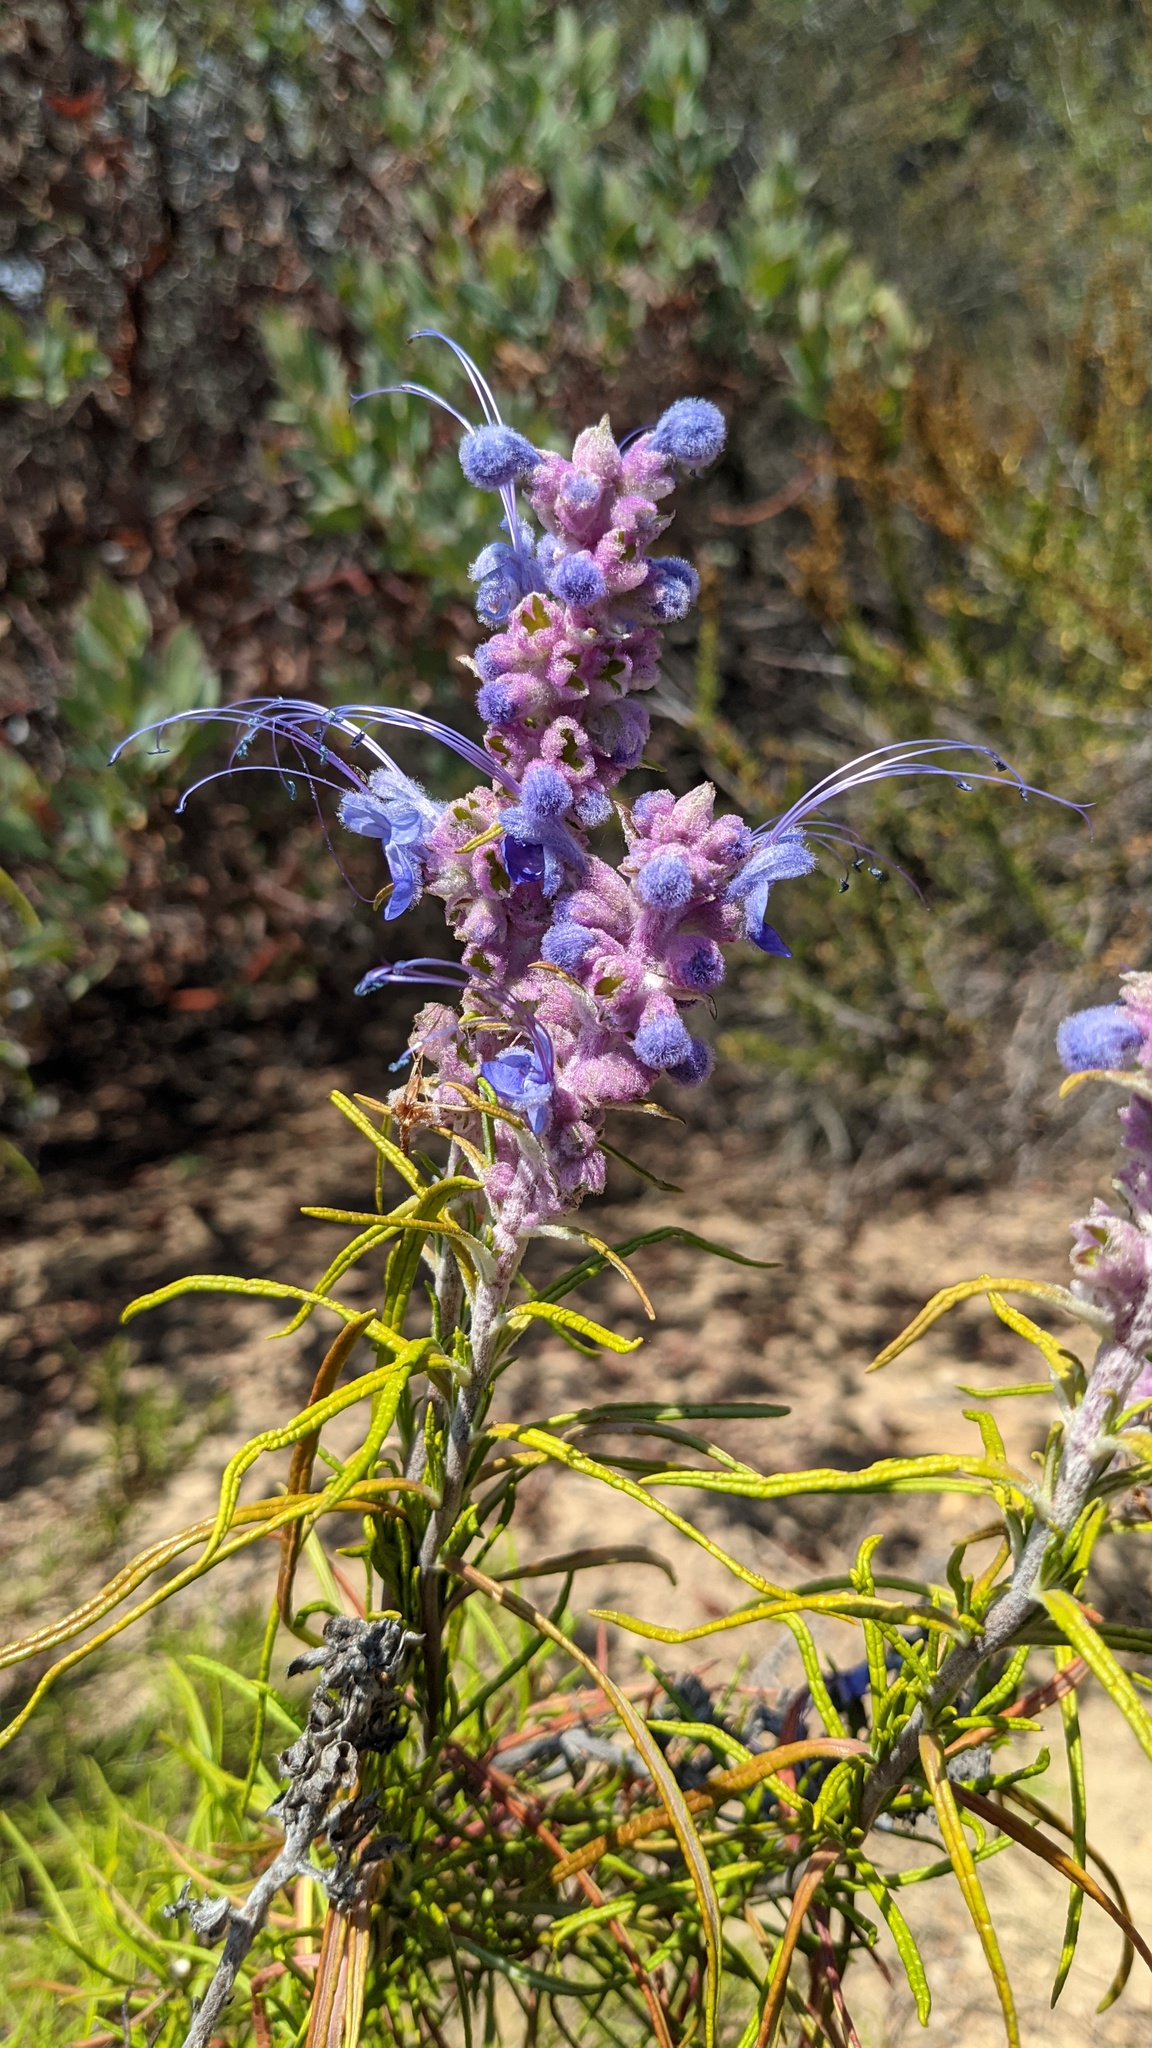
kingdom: Plantae
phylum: Tracheophyta
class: Magnoliopsida
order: Lamiales
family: Lamiaceae
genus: Trichostema
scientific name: Trichostema lanatum
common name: Woolly bluecurls
